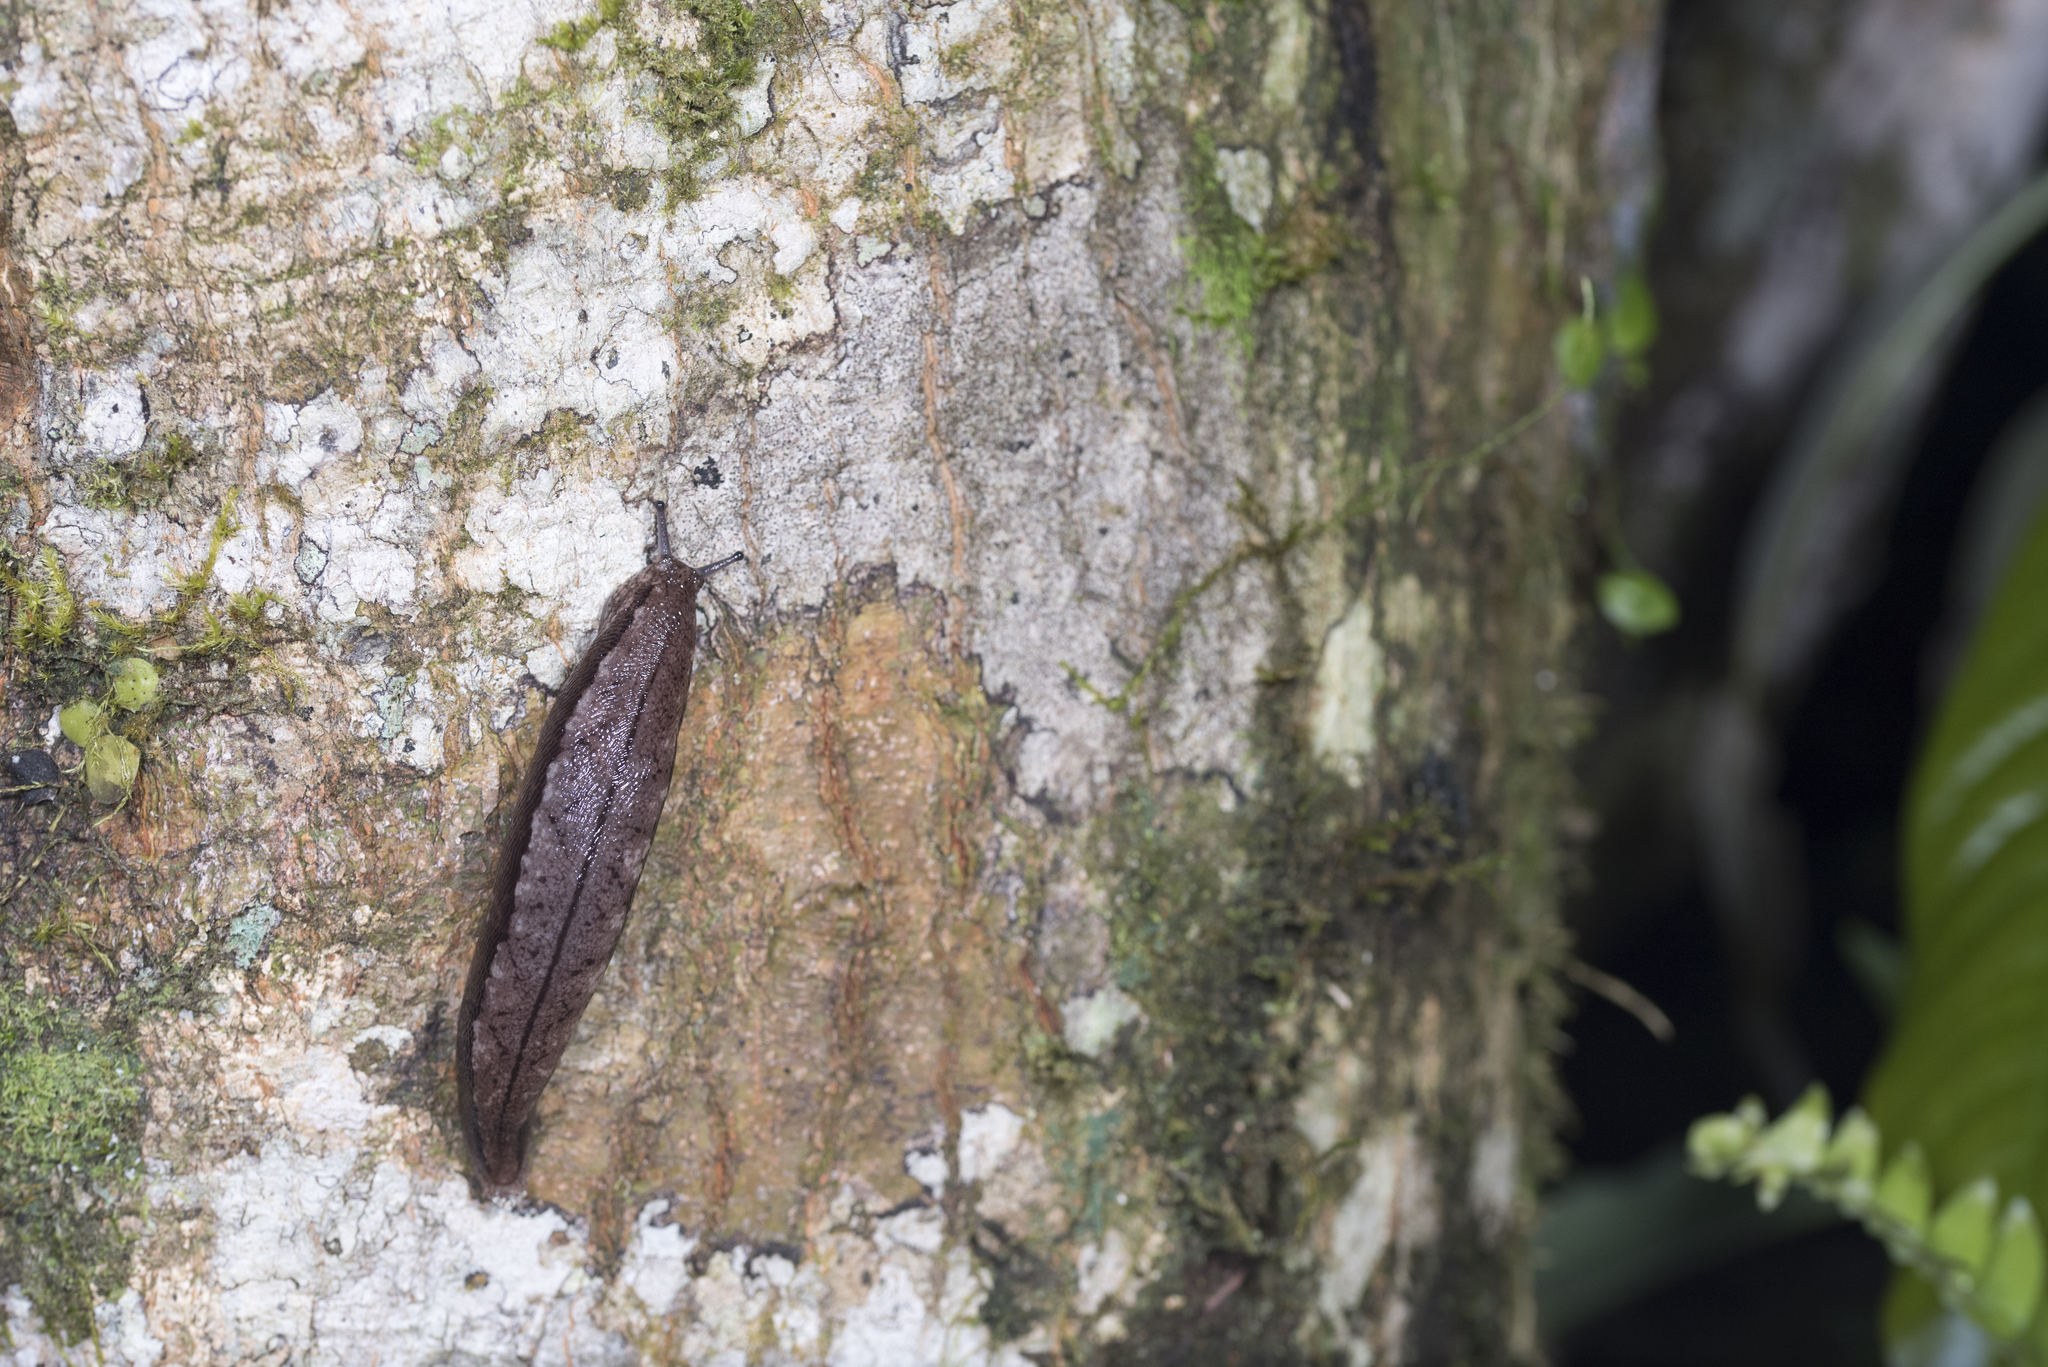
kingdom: Animalia
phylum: Mollusca
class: Gastropoda
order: Stylommatophora
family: Philomycidae
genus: Meghimatium
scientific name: Meghimatium fruhstorferi
